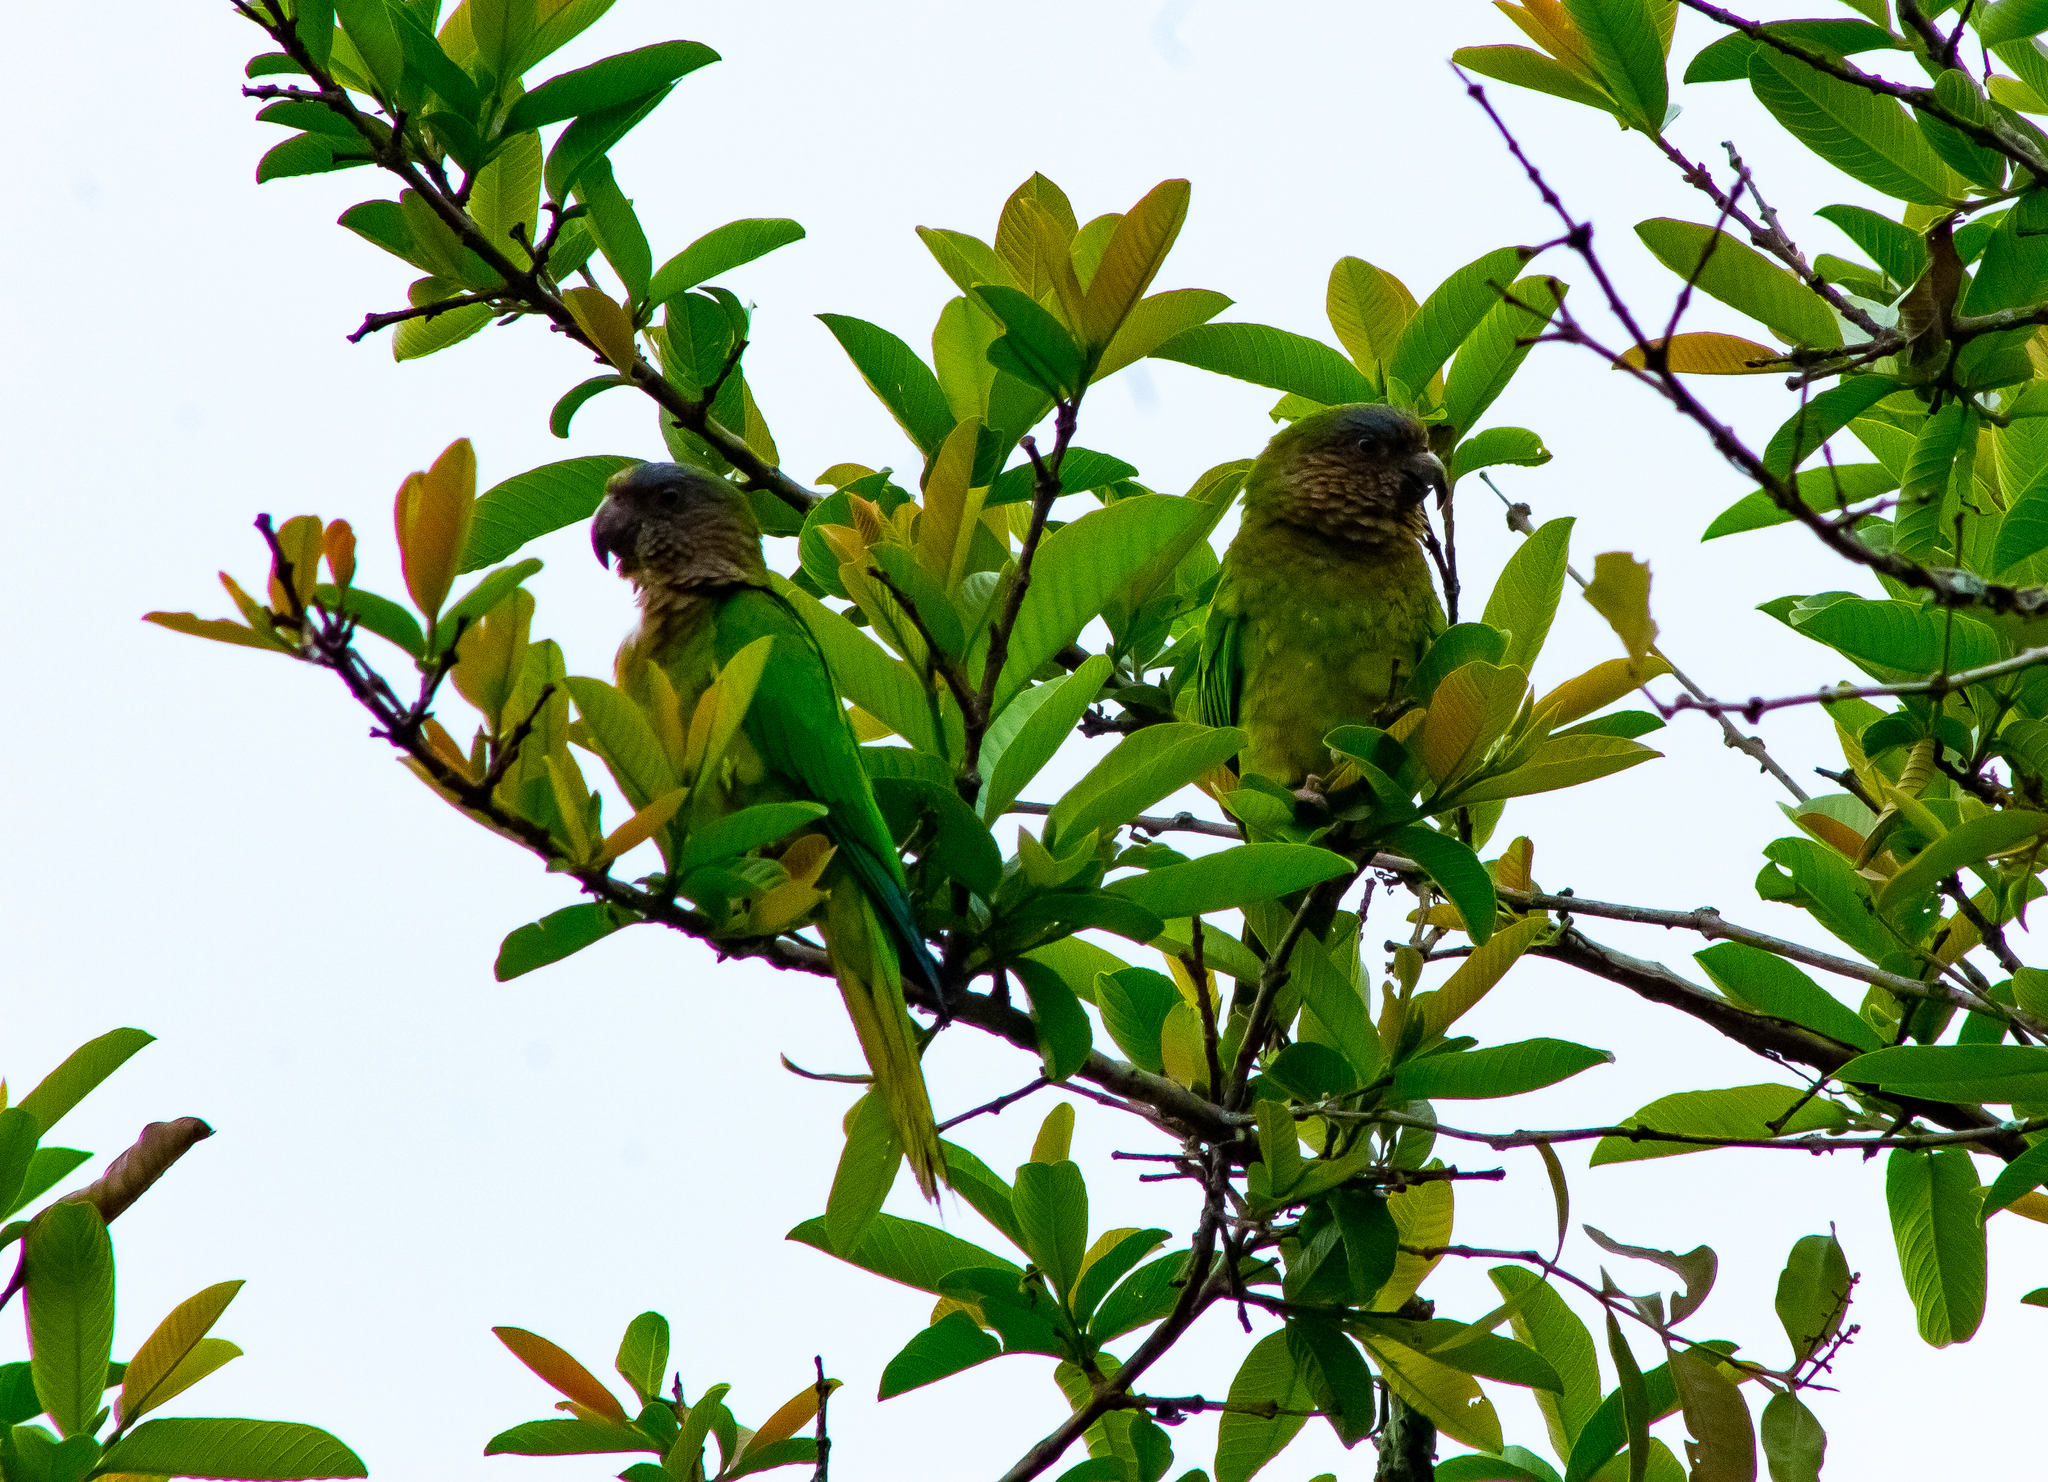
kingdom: Animalia
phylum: Chordata
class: Aves
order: Psittaciformes
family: Psittacidae
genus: Aratinga
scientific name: Aratinga pertinax
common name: Brown-throated parakeet
